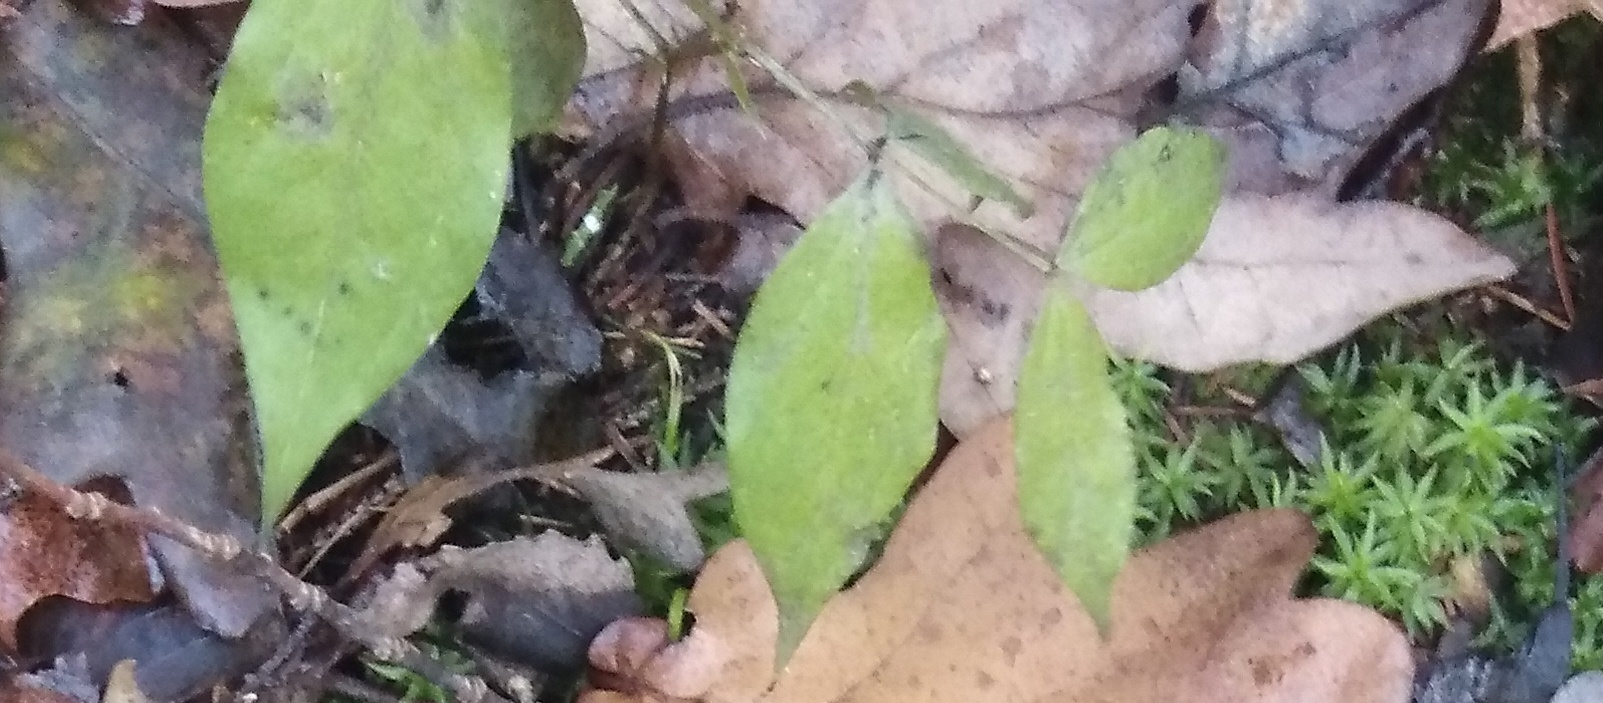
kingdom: Plantae
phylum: Tracheophyta
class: Magnoliopsida
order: Fabales
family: Fabaceae
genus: Lathyrus
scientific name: Lathyrus vernus
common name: Spring pea
